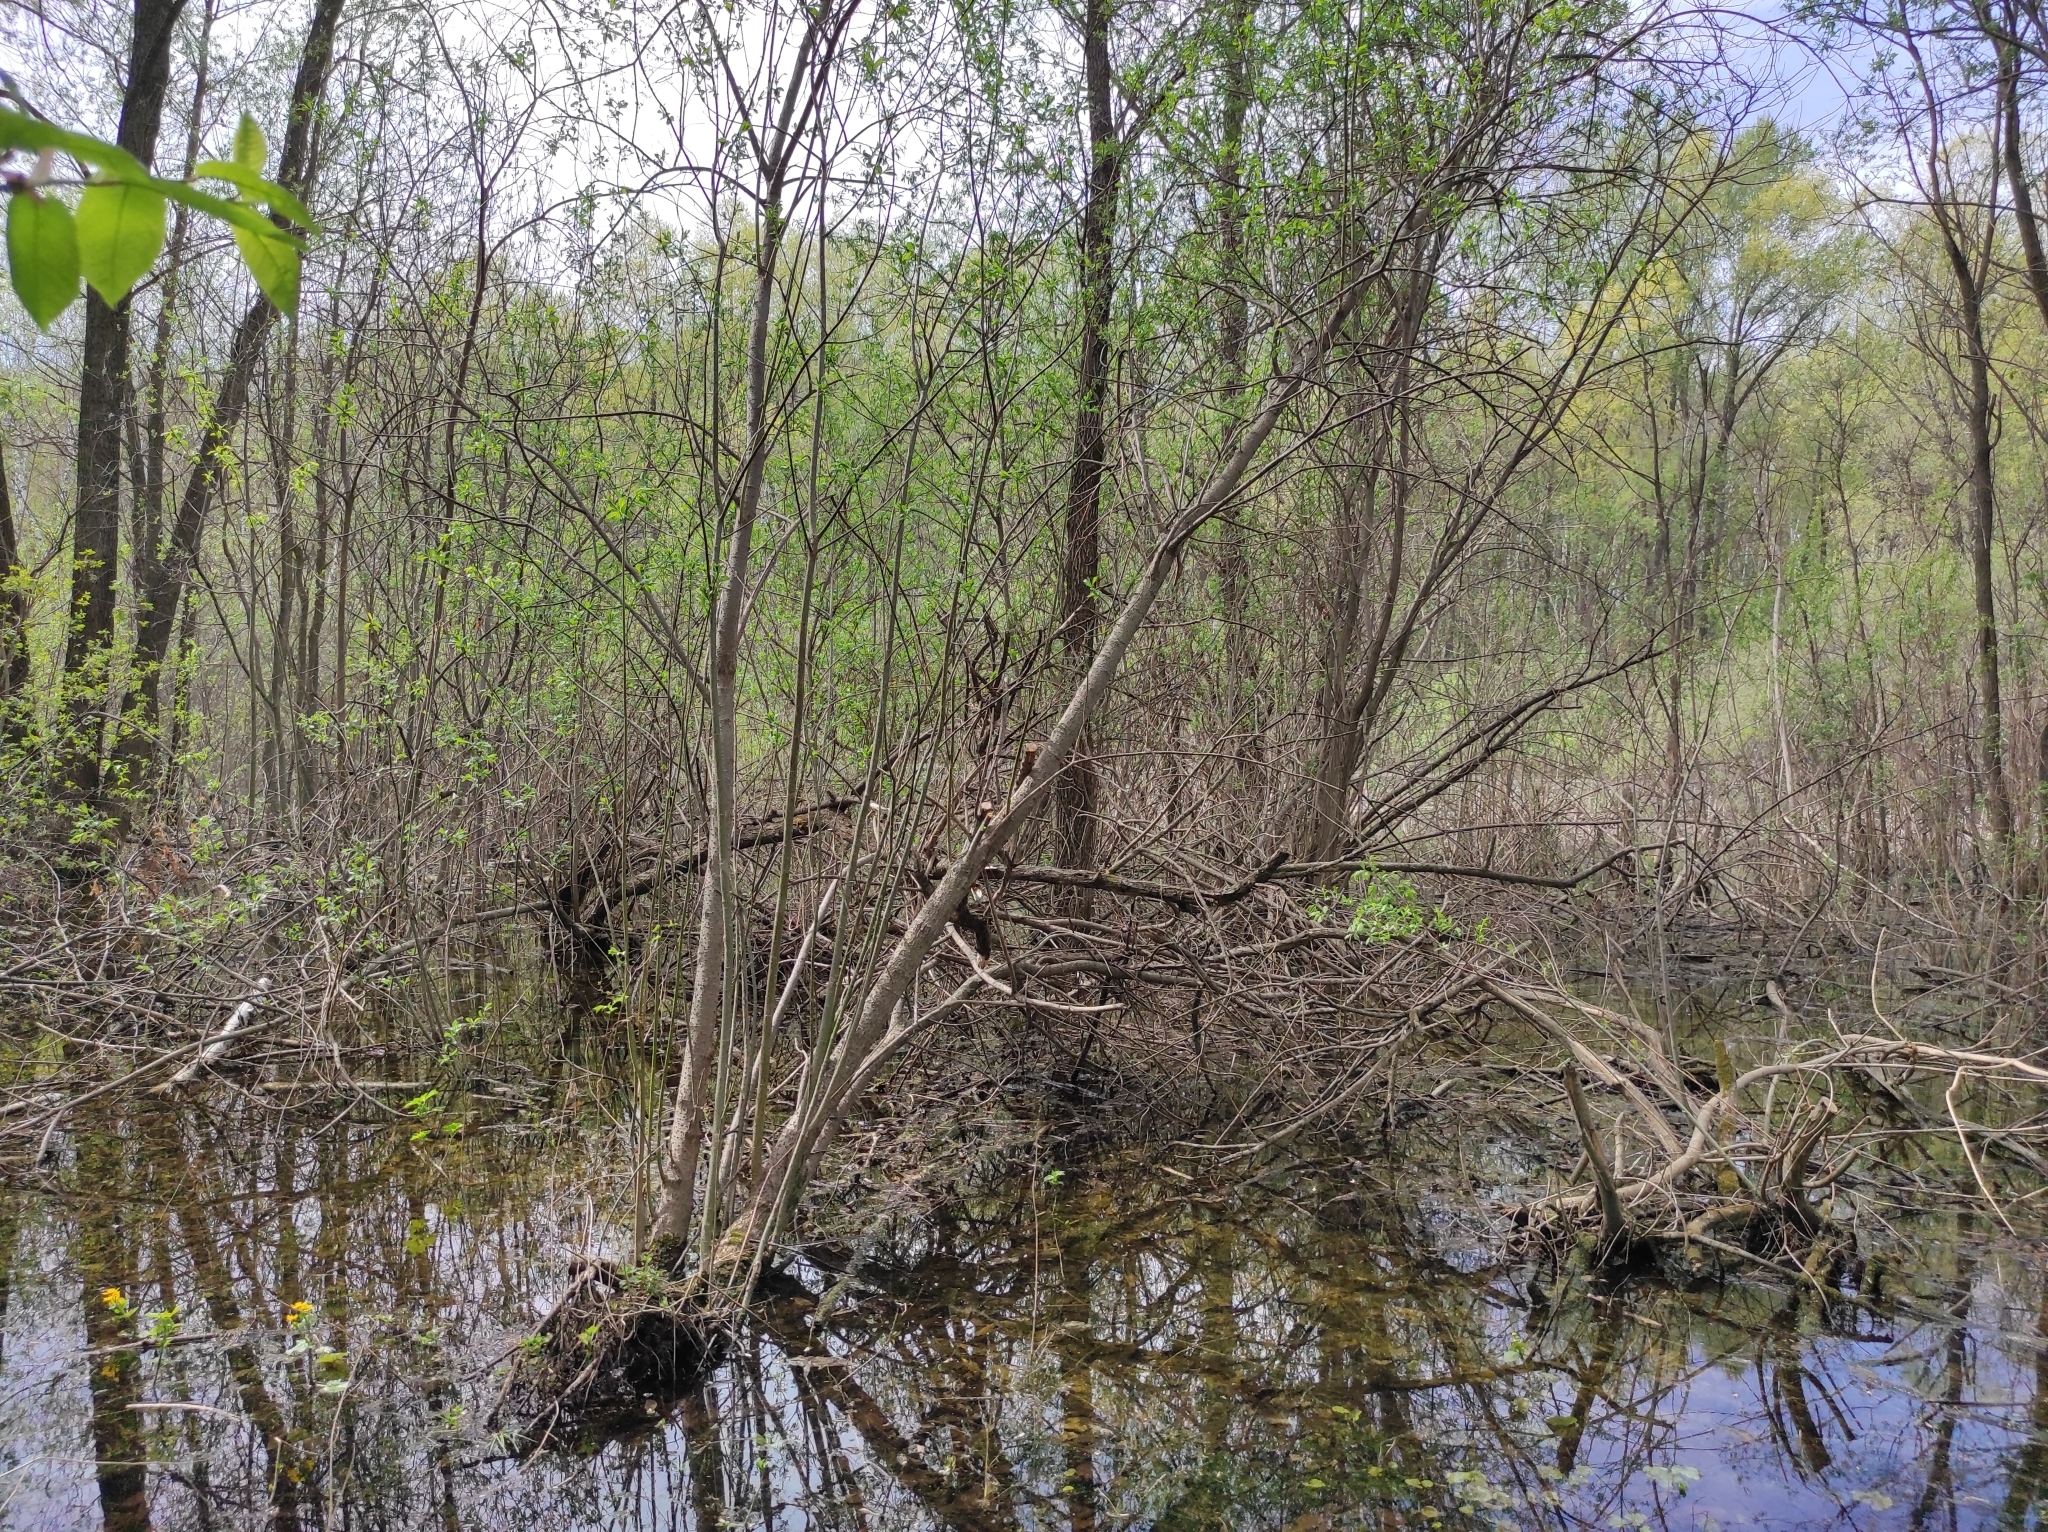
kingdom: Animalia
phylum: Chordata
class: Aves
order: Gruiformes
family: Rallidae
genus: Gallinula
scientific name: Gallinula chloropus
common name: Common moorhen
